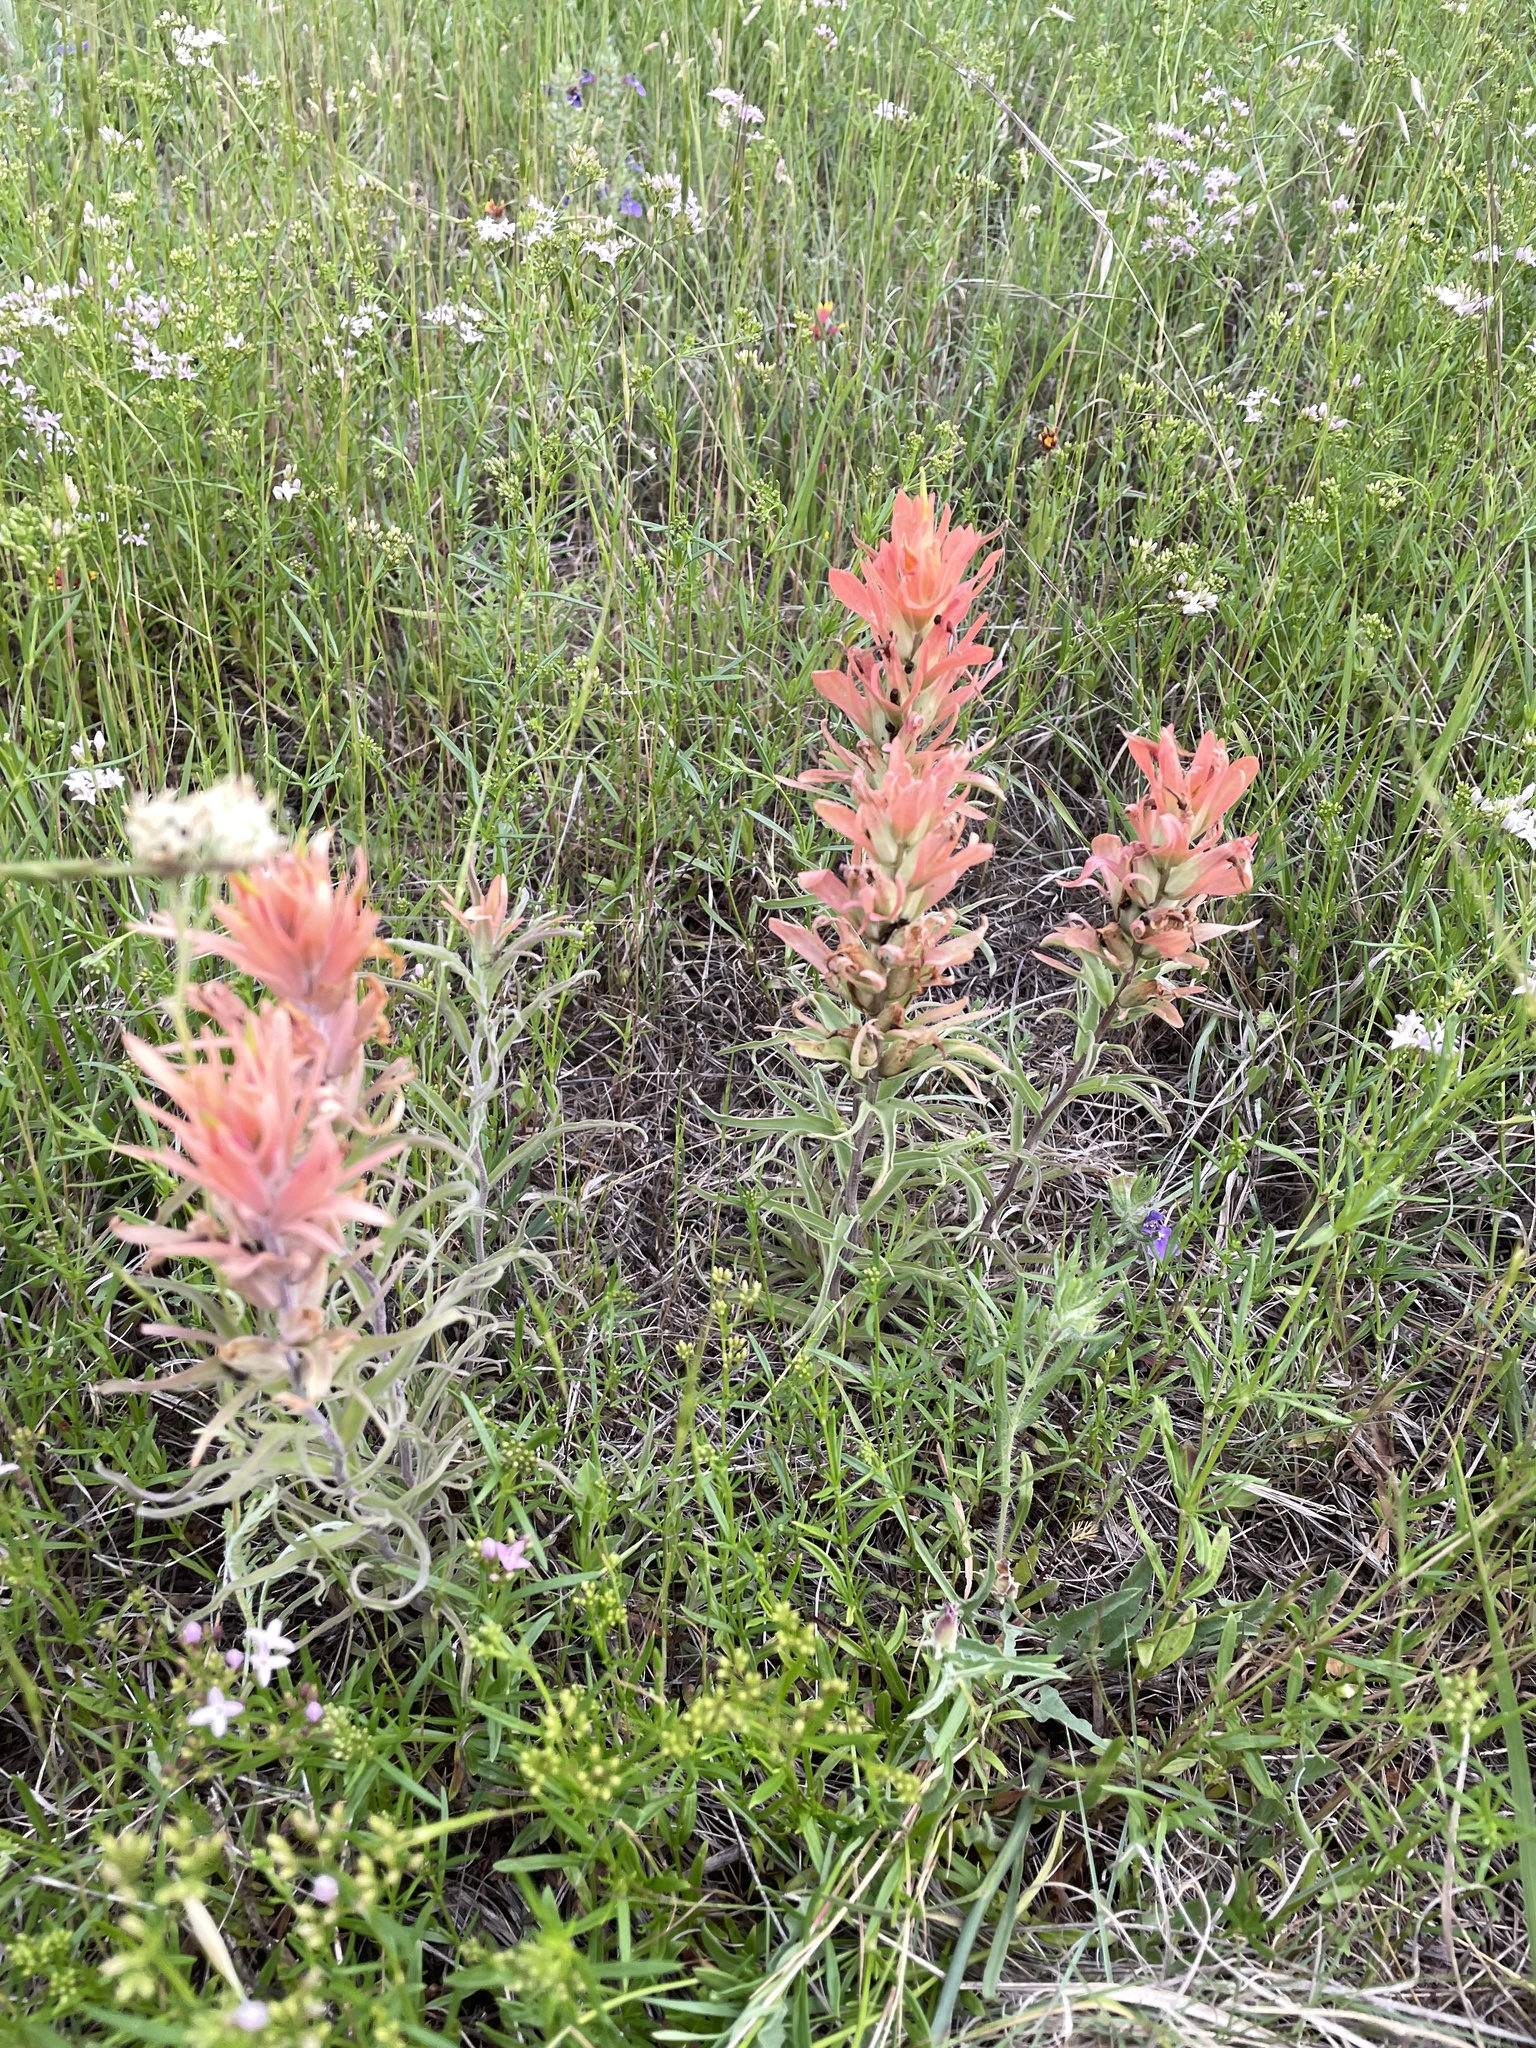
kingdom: Plantae
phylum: Tracheophyta
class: Magnoliopsida
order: Lamiales
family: Orobanchaceae
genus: Castilleja
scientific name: Castilleja lindheimeri
